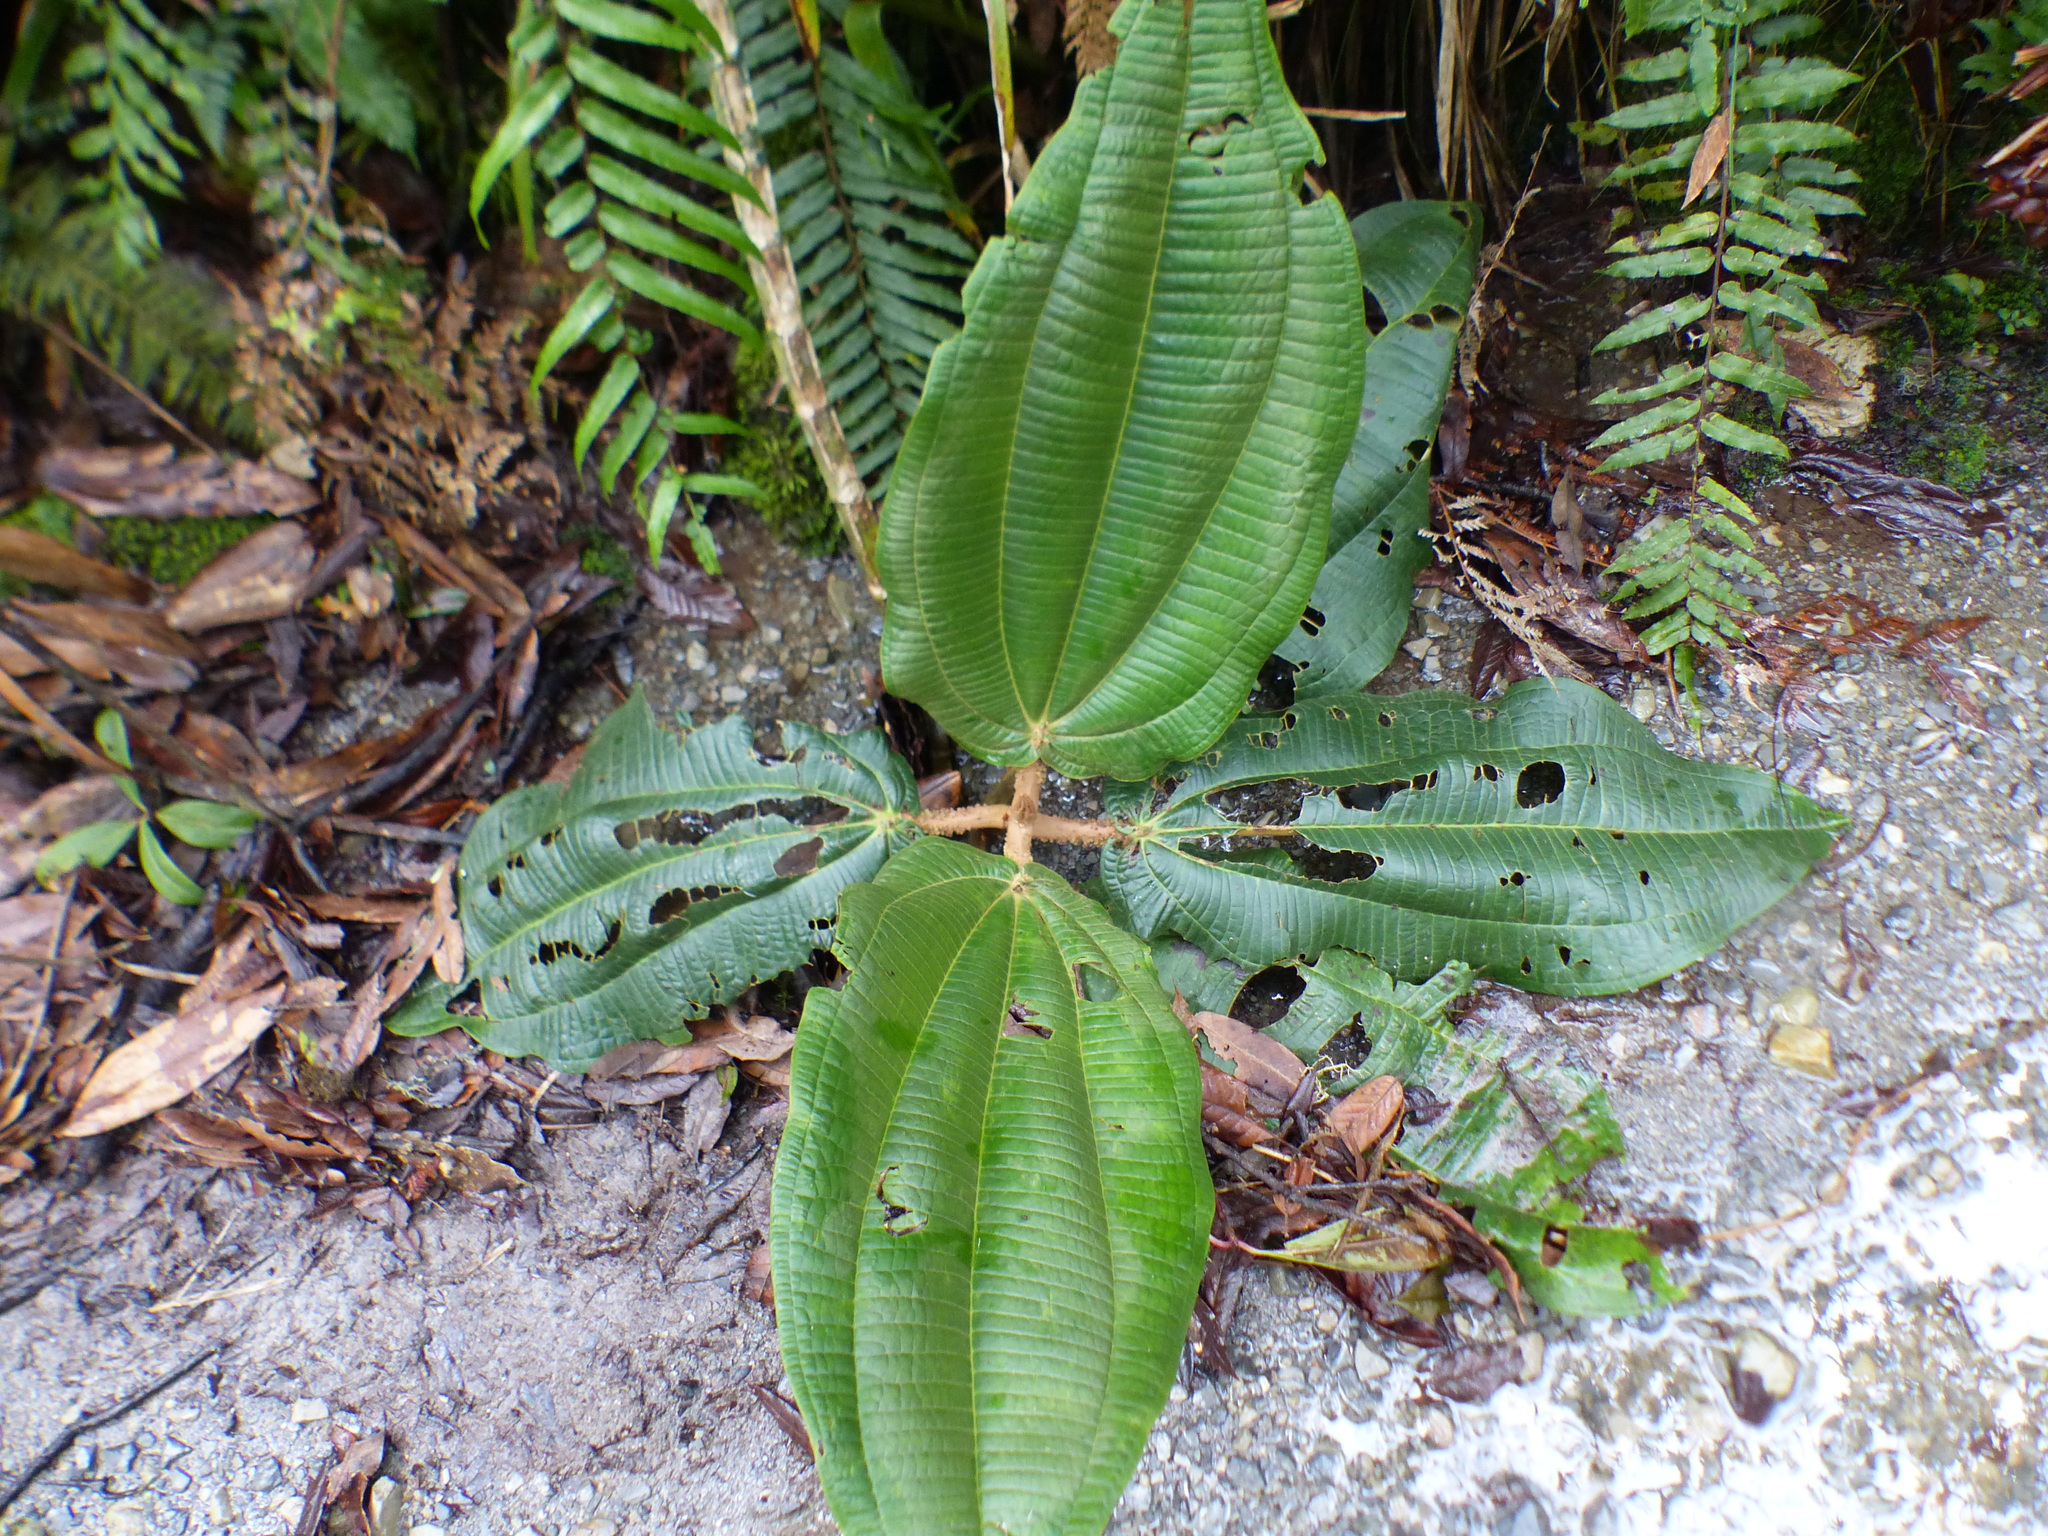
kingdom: Plantae
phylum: Tracheophyta
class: Magnoliopsida
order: Myrtales
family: Melastomataceae
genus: Graffenrieda
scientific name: Graffenrieda uribei
